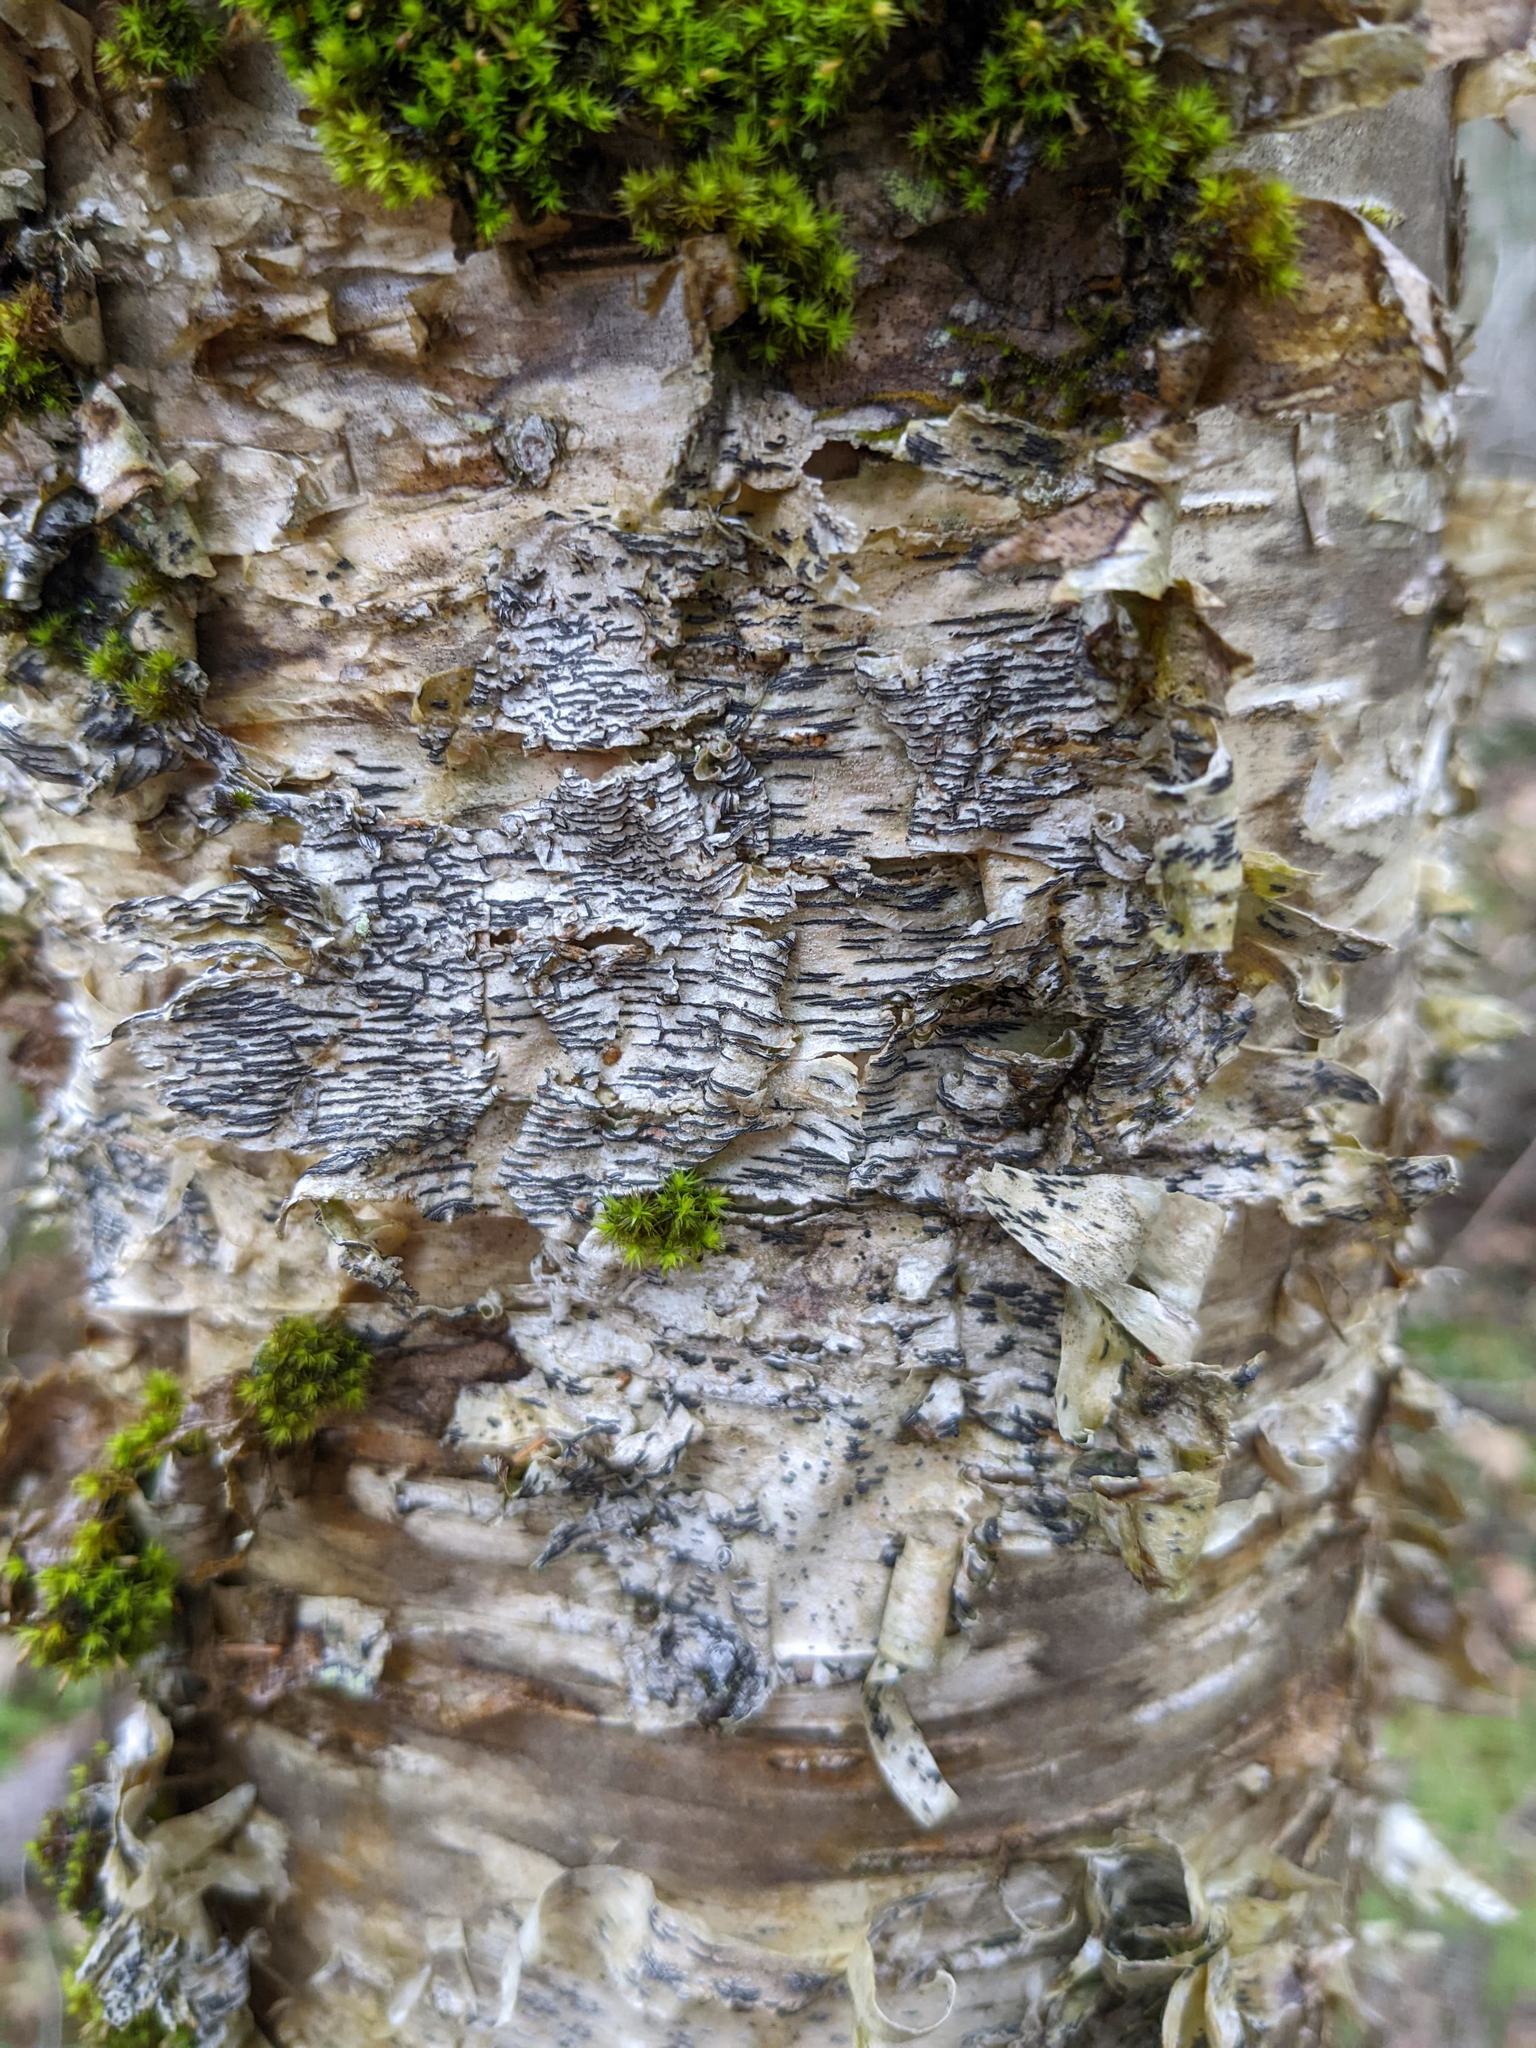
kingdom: Fungi
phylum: Ascomycota
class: Lecanoromycetes
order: Ostropales
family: Graphidaceae
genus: Graphis
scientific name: Graphis scripta
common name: Script lichen
